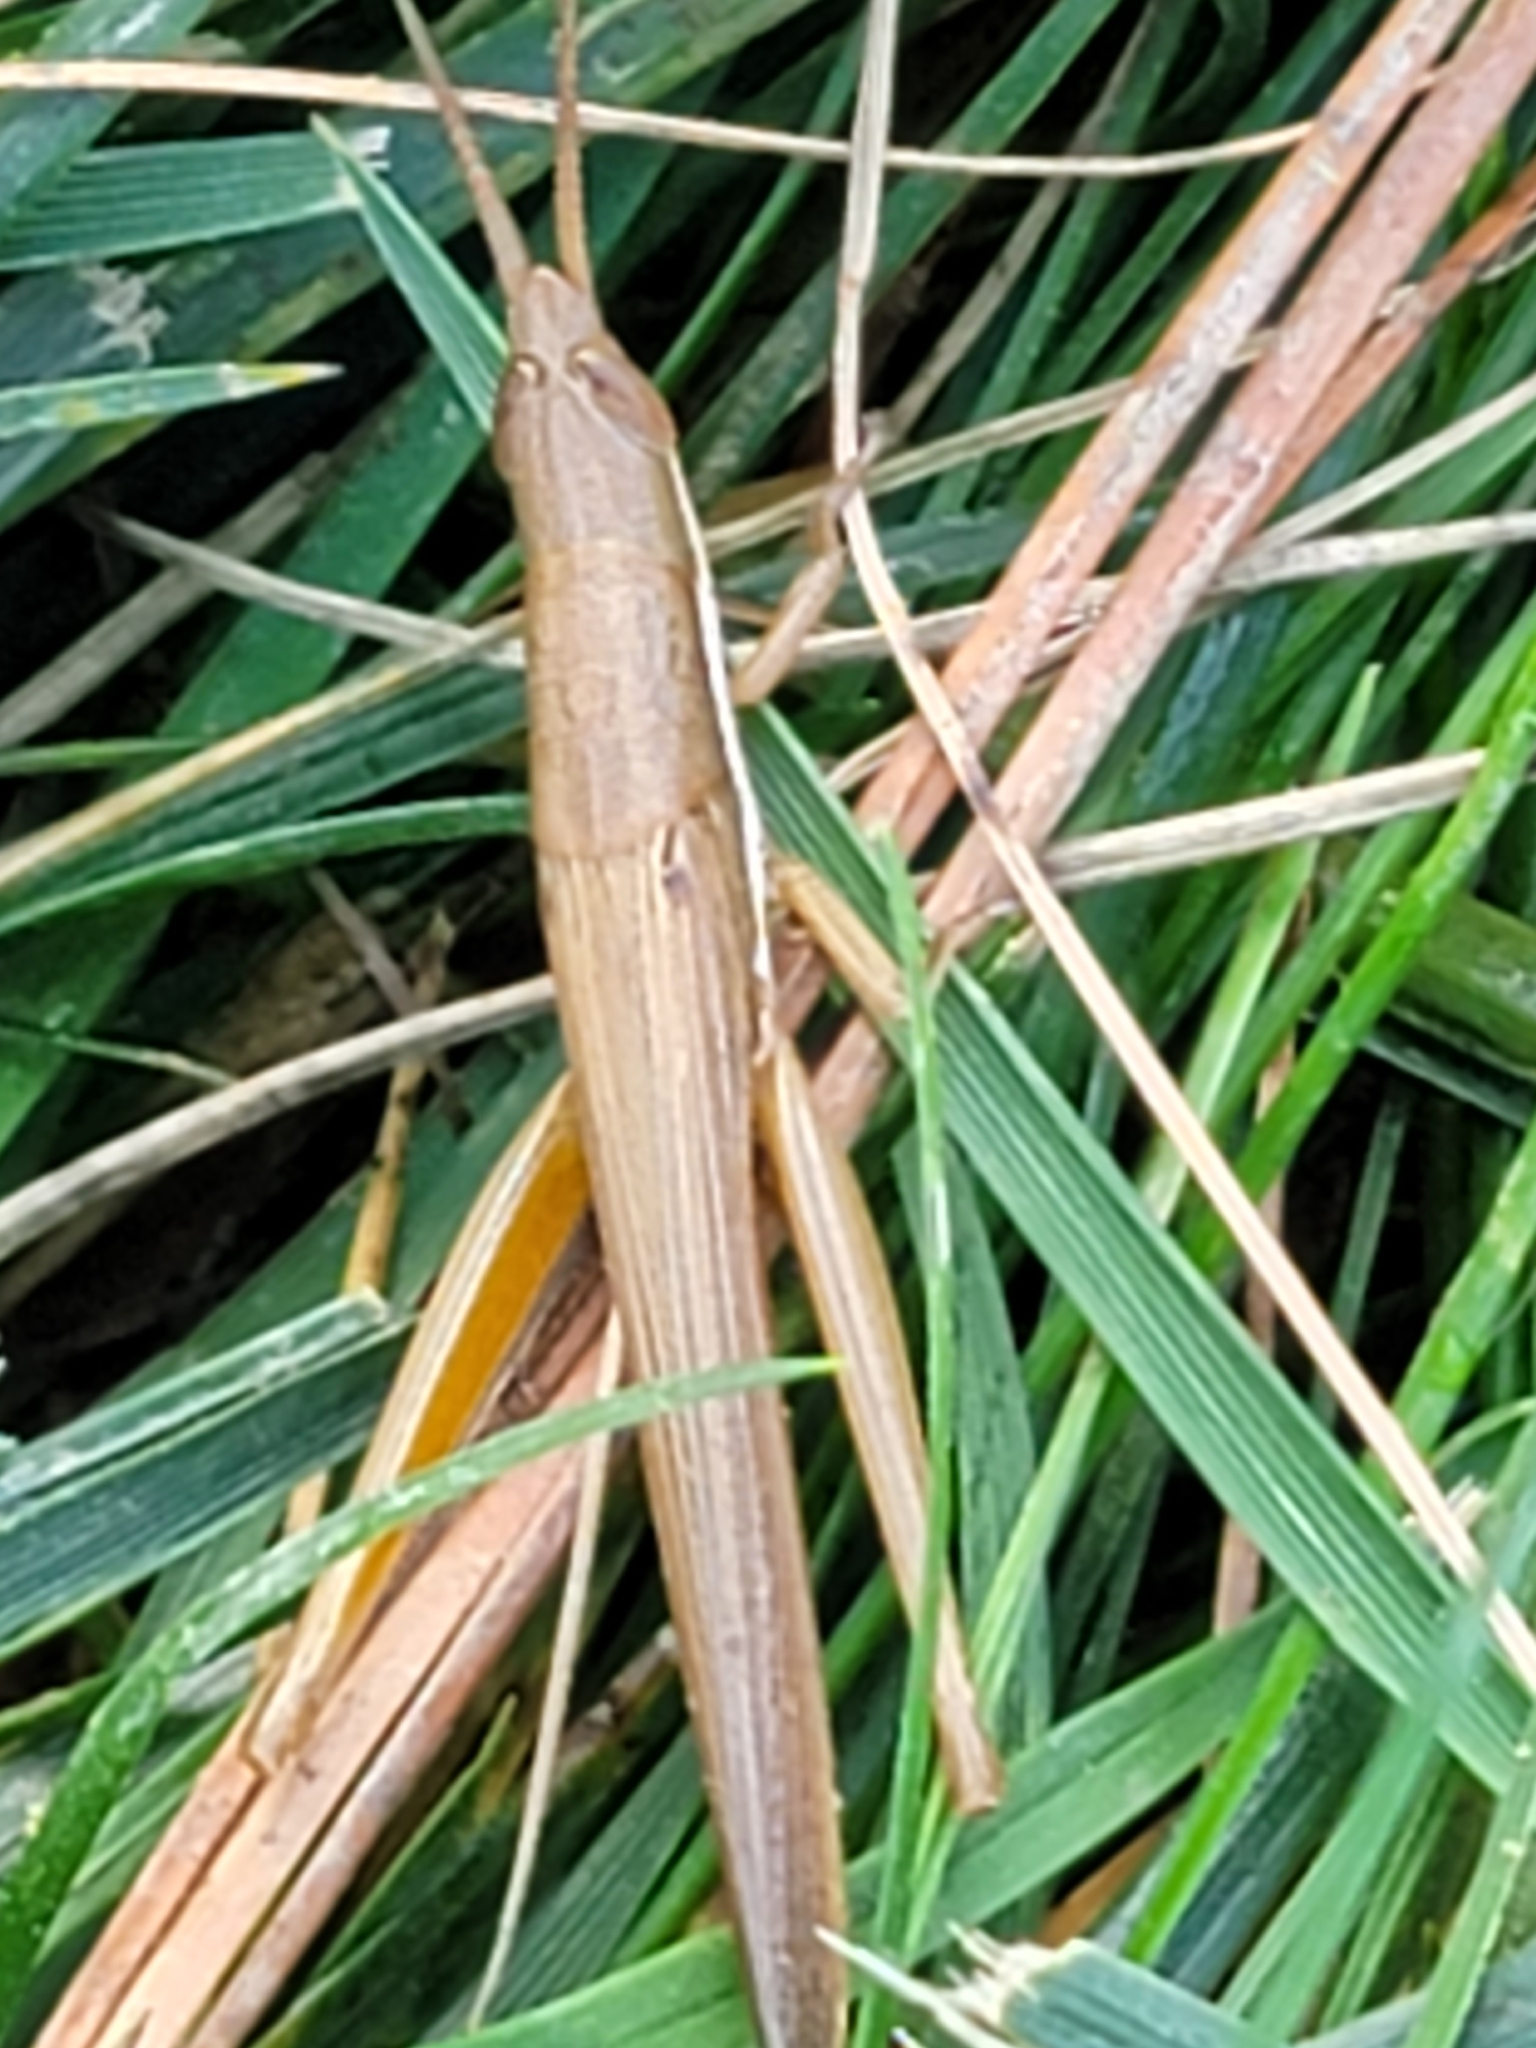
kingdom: Animalia
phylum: Arthropoda
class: Insecta
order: Orthoptera
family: Acrididae
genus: Leptysma
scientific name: Leptysma marginicollis
